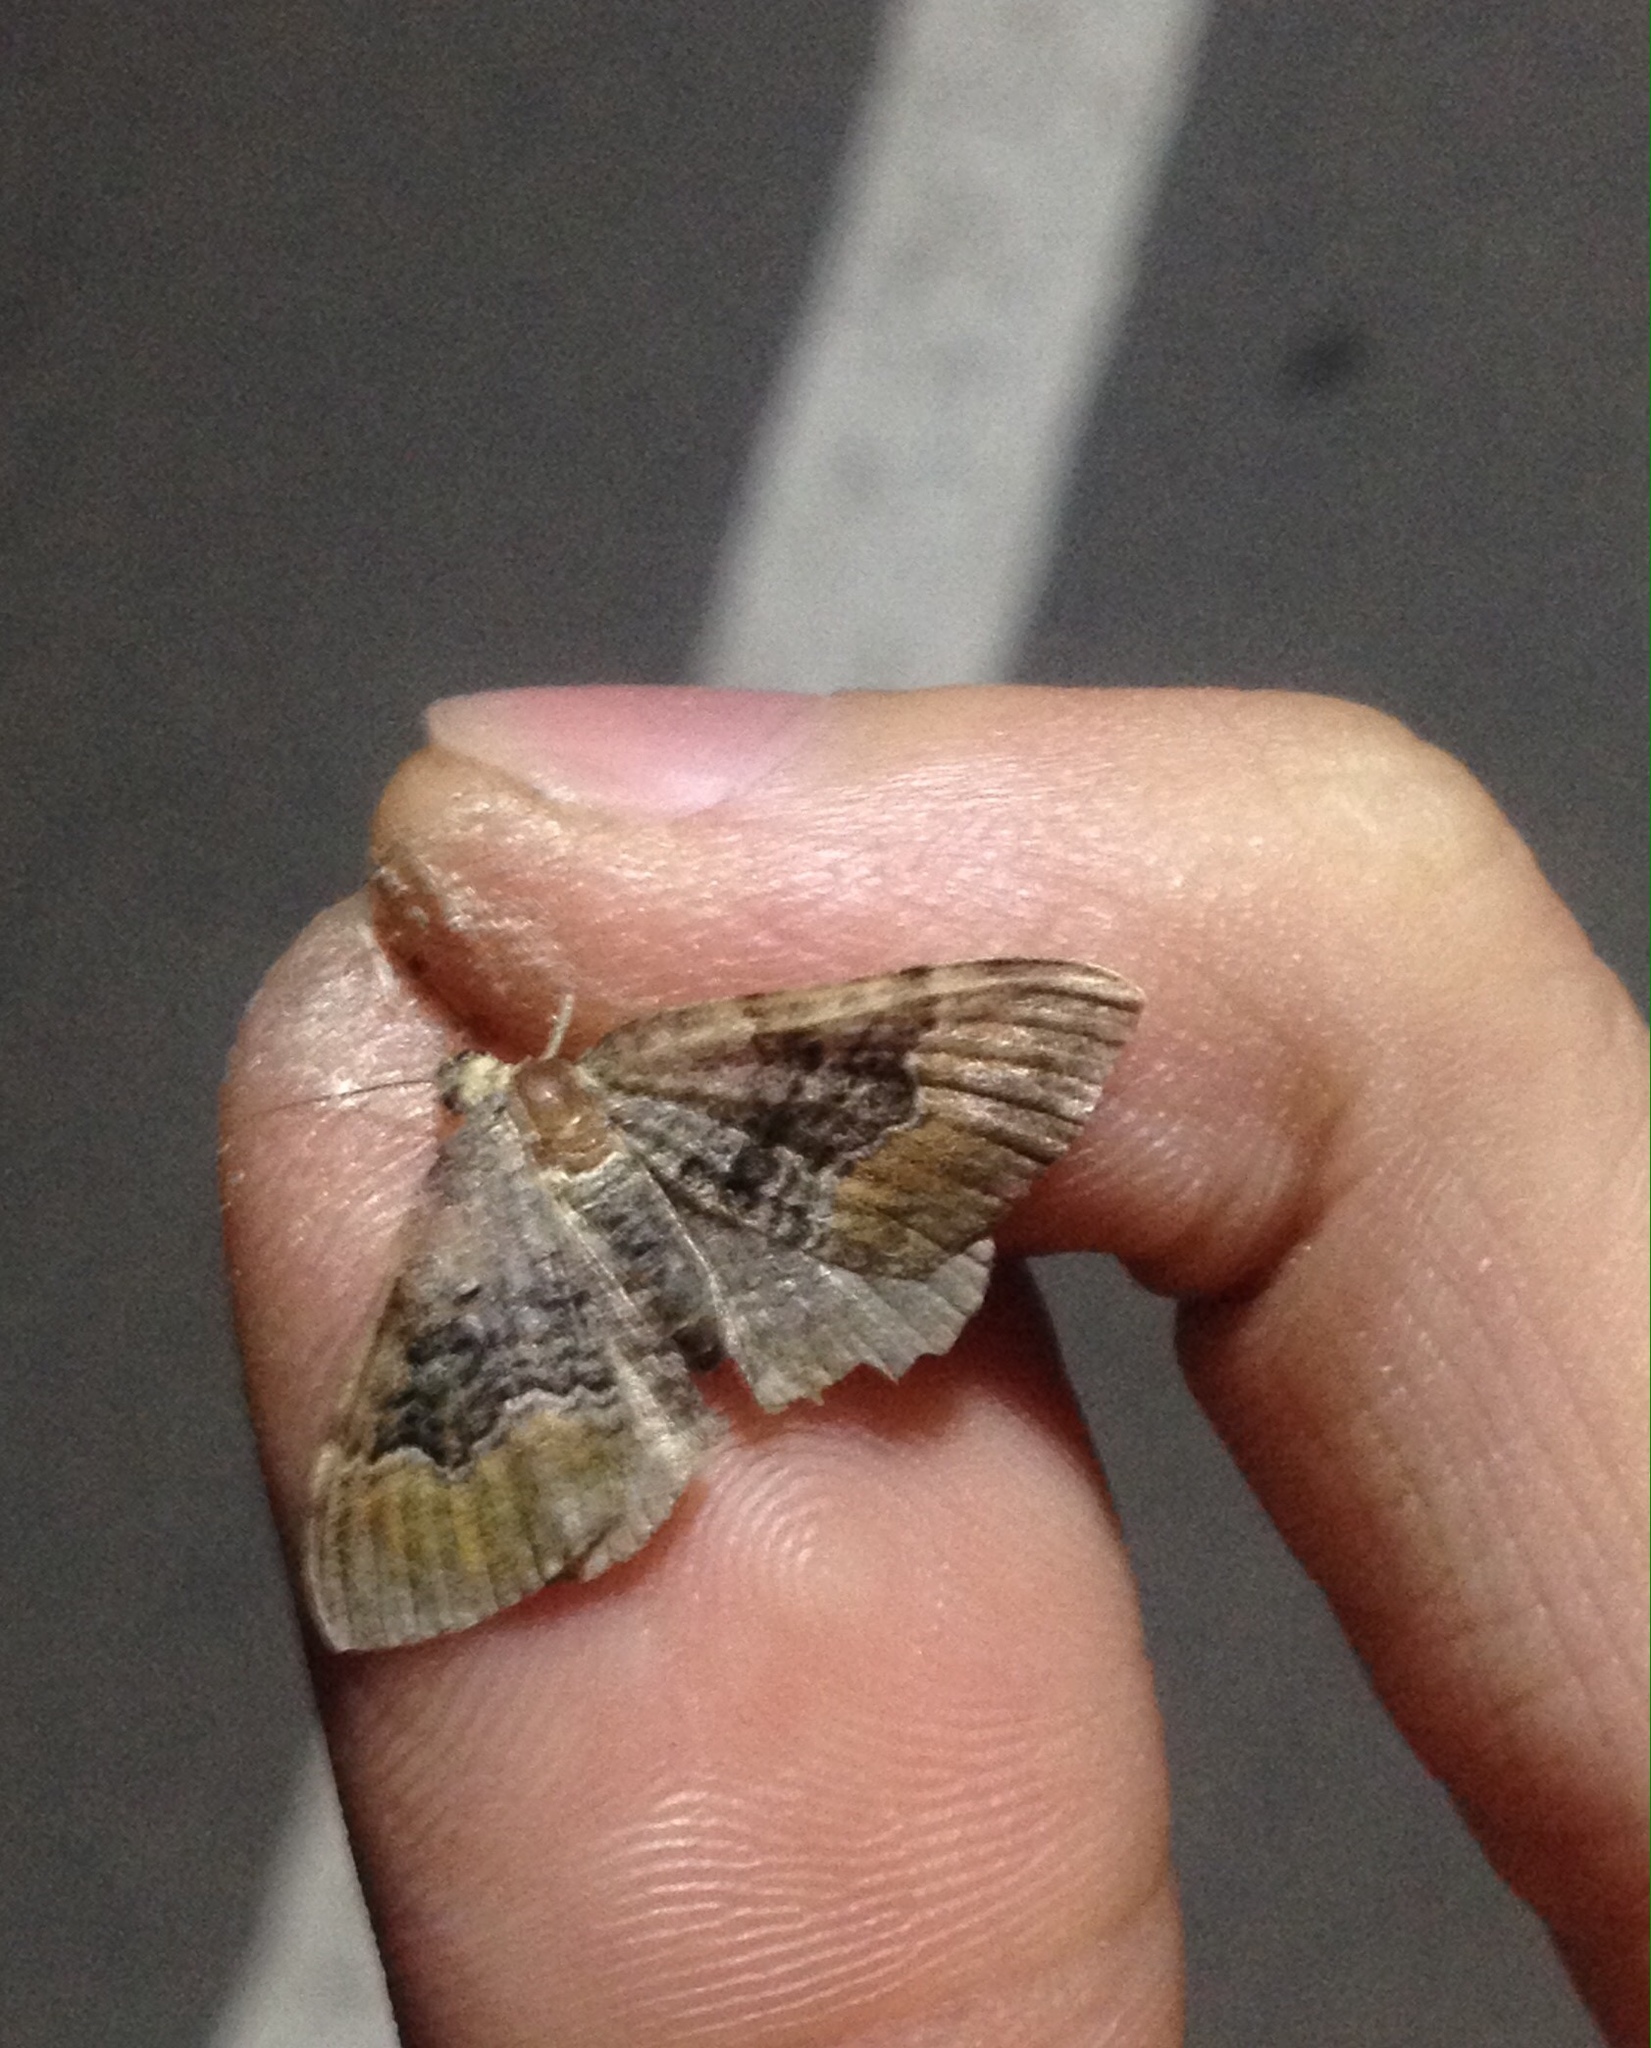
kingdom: Animalia
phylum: Arthropoda
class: Insecta
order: Lepidoptera
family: Geometridae
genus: Xanthorhoe
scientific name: Xanthorhoe quadrifasiata
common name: Large twin-spot carpet
